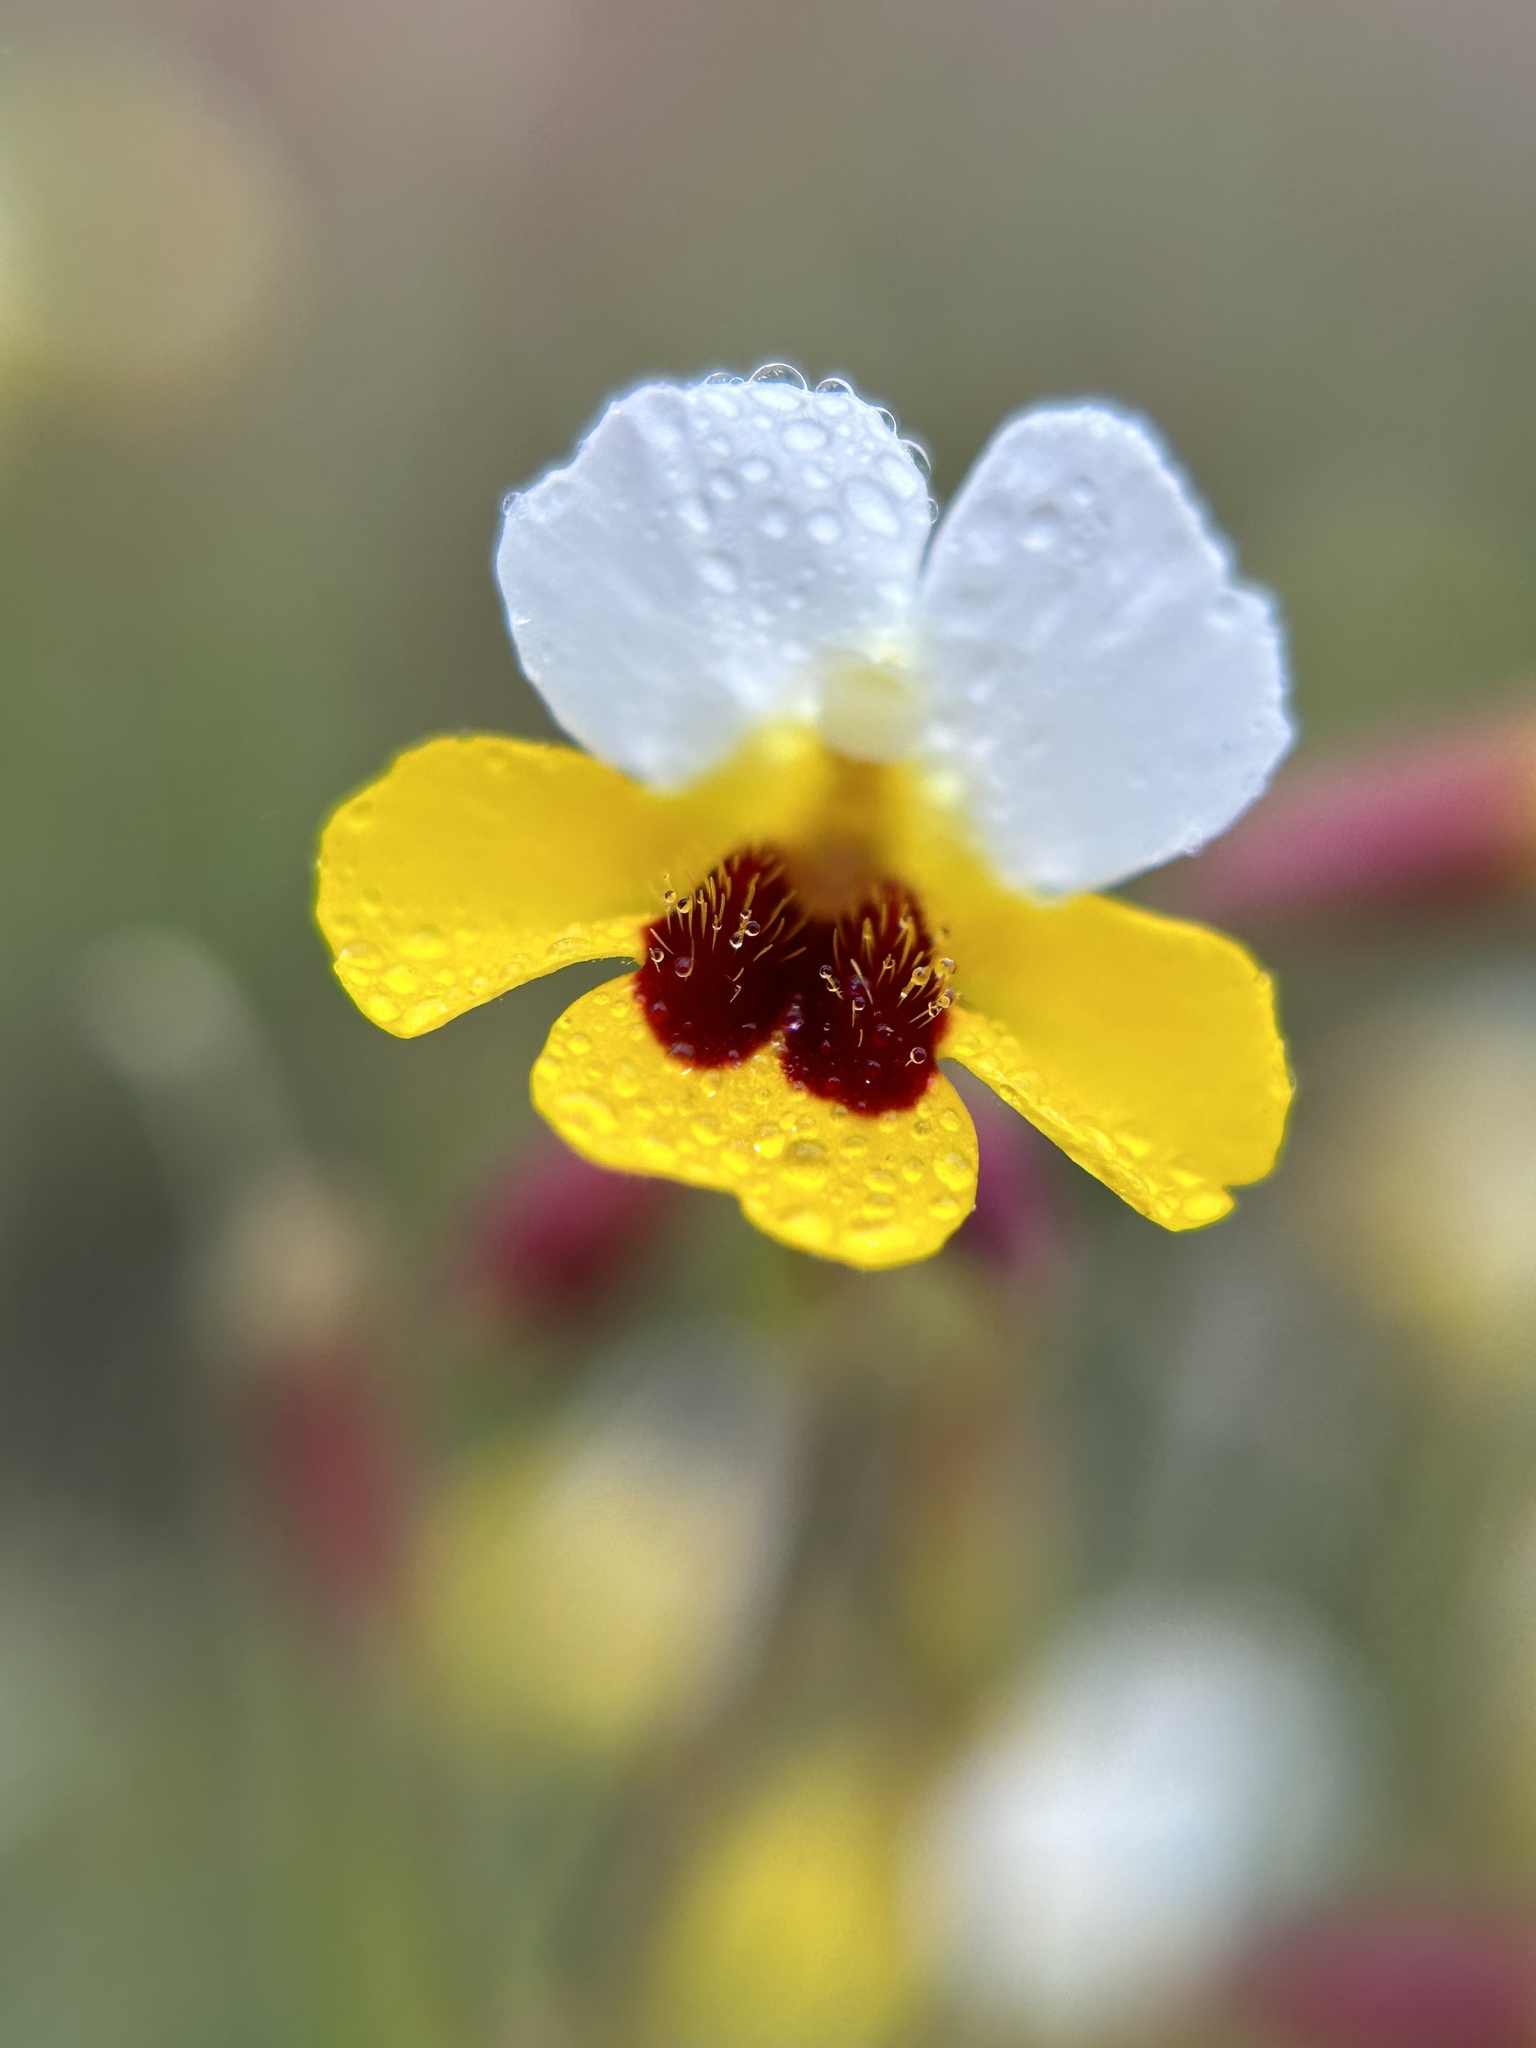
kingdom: Plantae
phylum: Tracheophyta
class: Magnoliopsida
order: Lamiales
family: Phrymaceae
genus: Erythranthe
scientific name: Erythranthe bicolor
